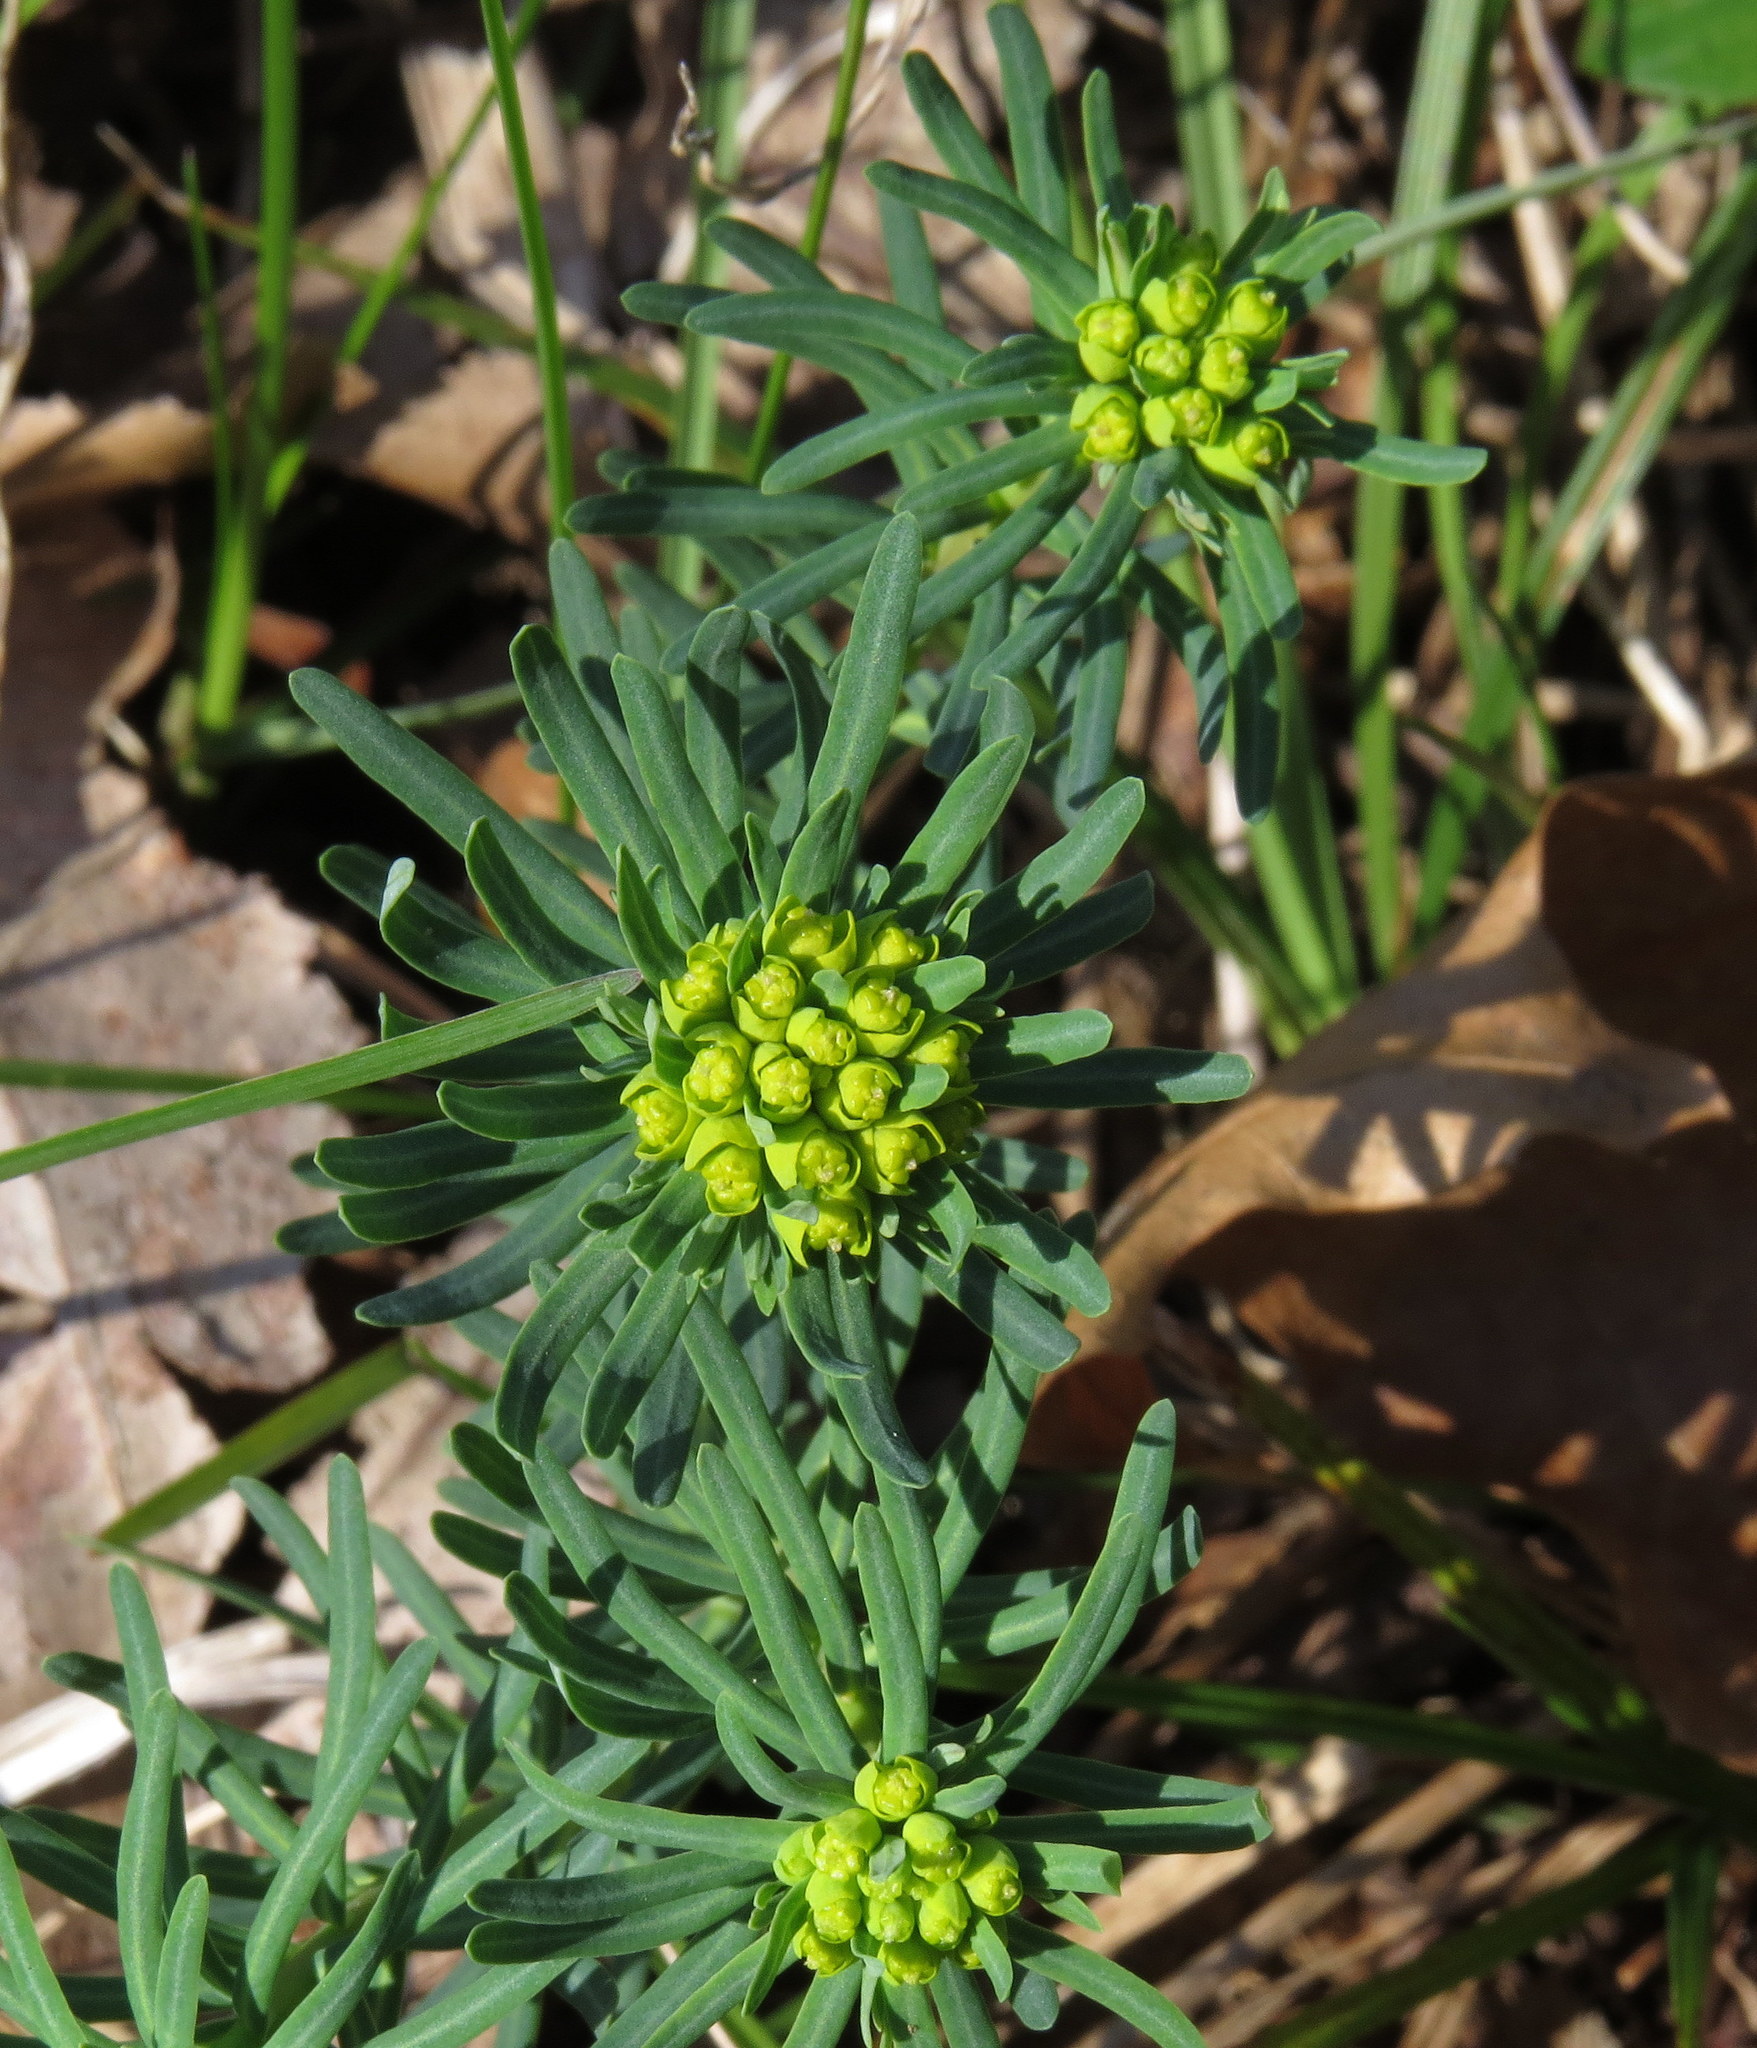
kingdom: Plantae
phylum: Tracheophyta
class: Magnoliopsida
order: Malpighiales
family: Euphorbiaceae
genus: Euphorbia
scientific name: Euphorbia cyparissias
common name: Cypress spurge
